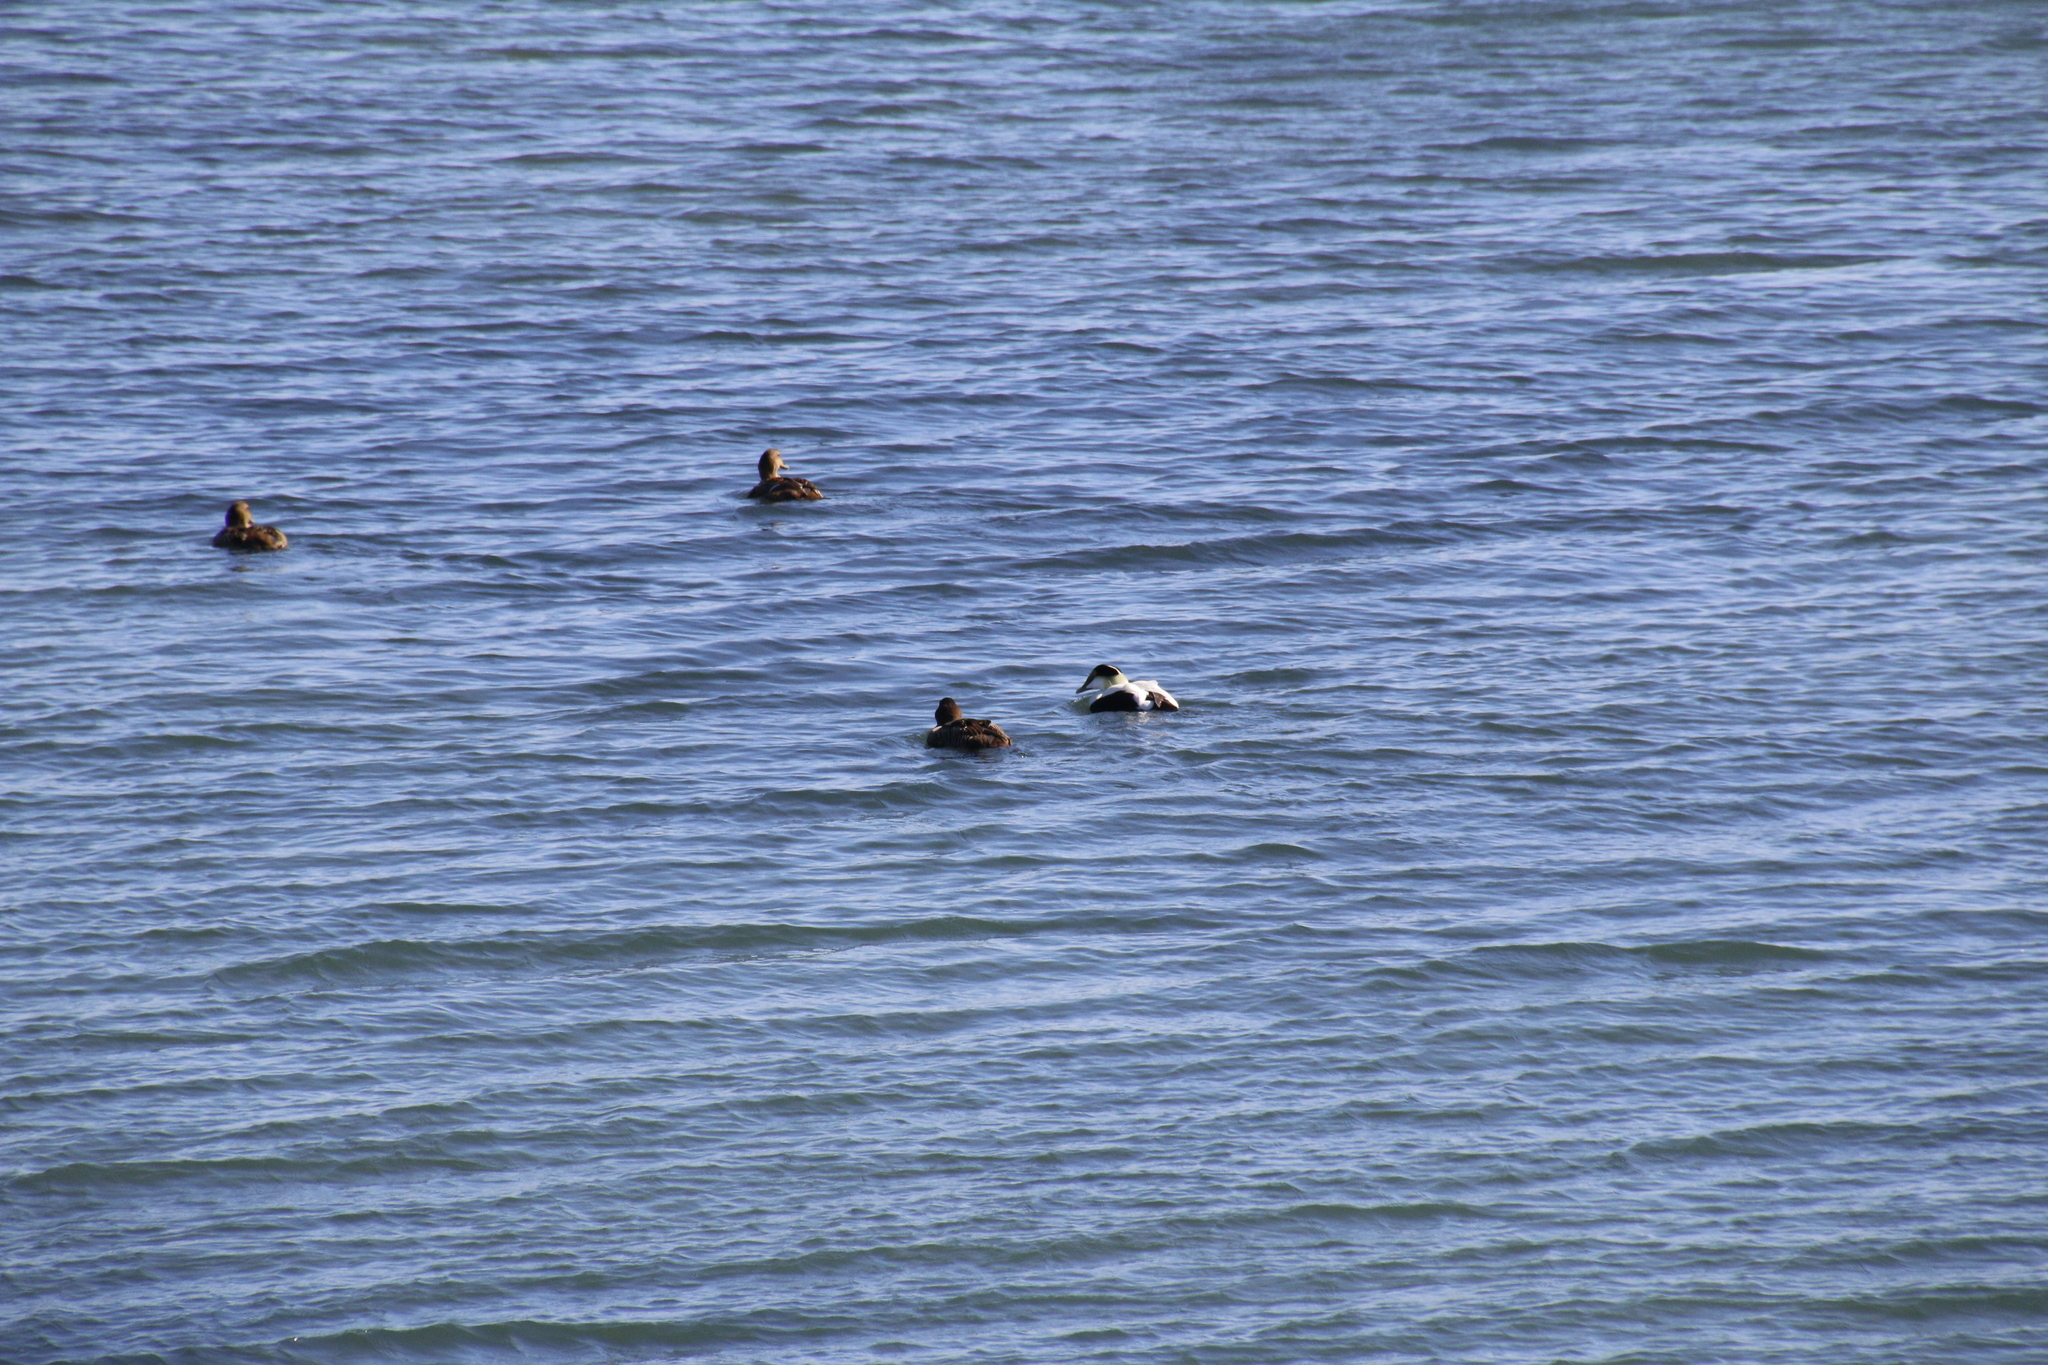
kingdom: Animalia
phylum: Chordata
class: Aves
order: Anseriformes
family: Anatidae
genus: Somateria
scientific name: Somateria mollissima
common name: Common eider
